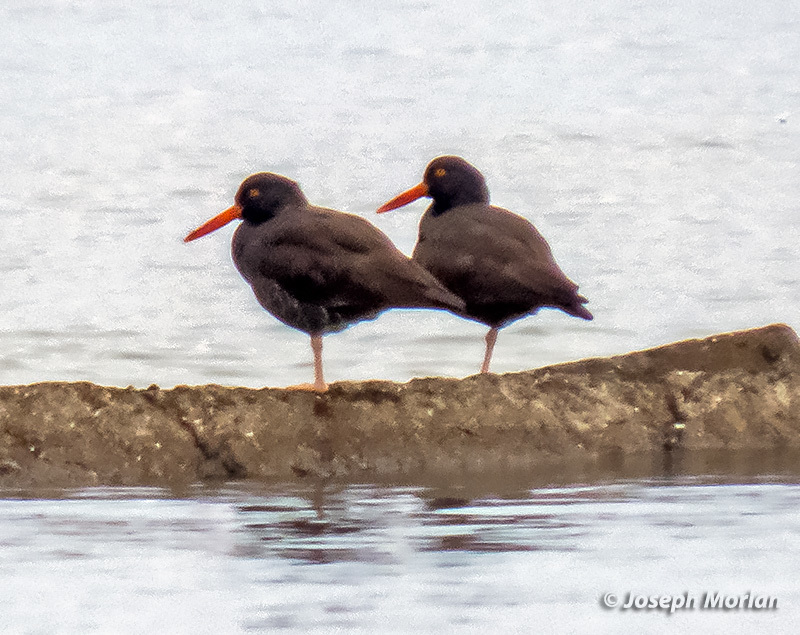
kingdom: Animalia
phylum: Chordata
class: Aves
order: Charadriiformes
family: Haematopodidae
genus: Haematopus
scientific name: Haematopus bachmani
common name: Black oystercatcher
